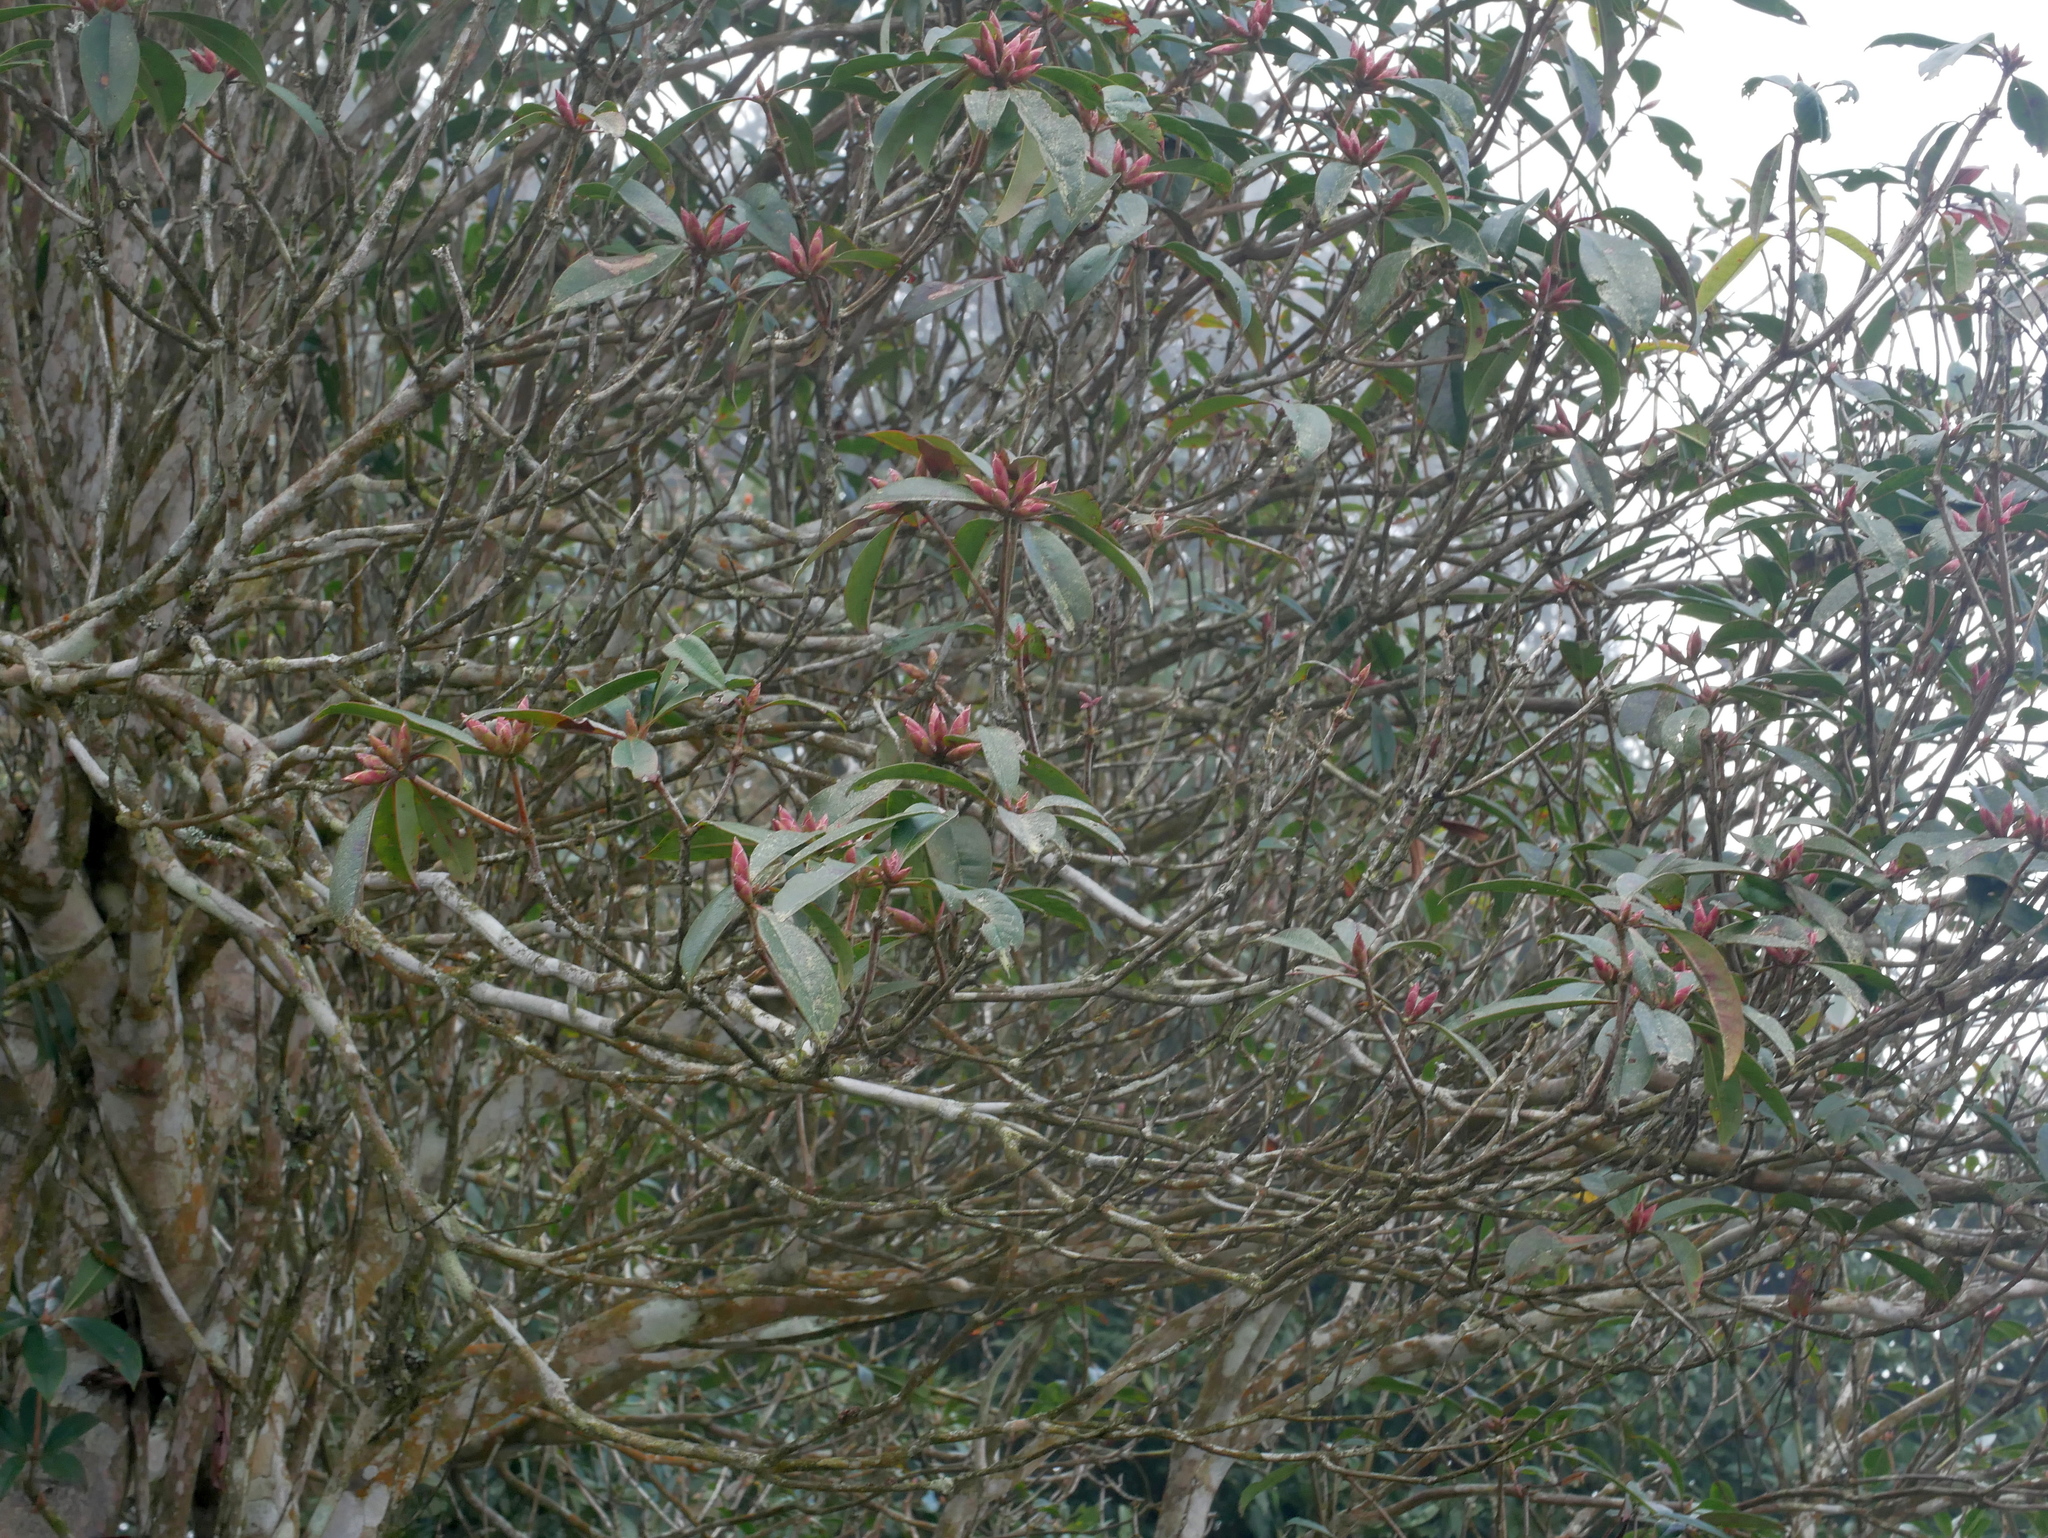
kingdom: Plantae
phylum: Tracheophyta
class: Magnoliopsida
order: Ericales
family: Ericaceae
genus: Rhododendron
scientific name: Rhododendron latoucheae
